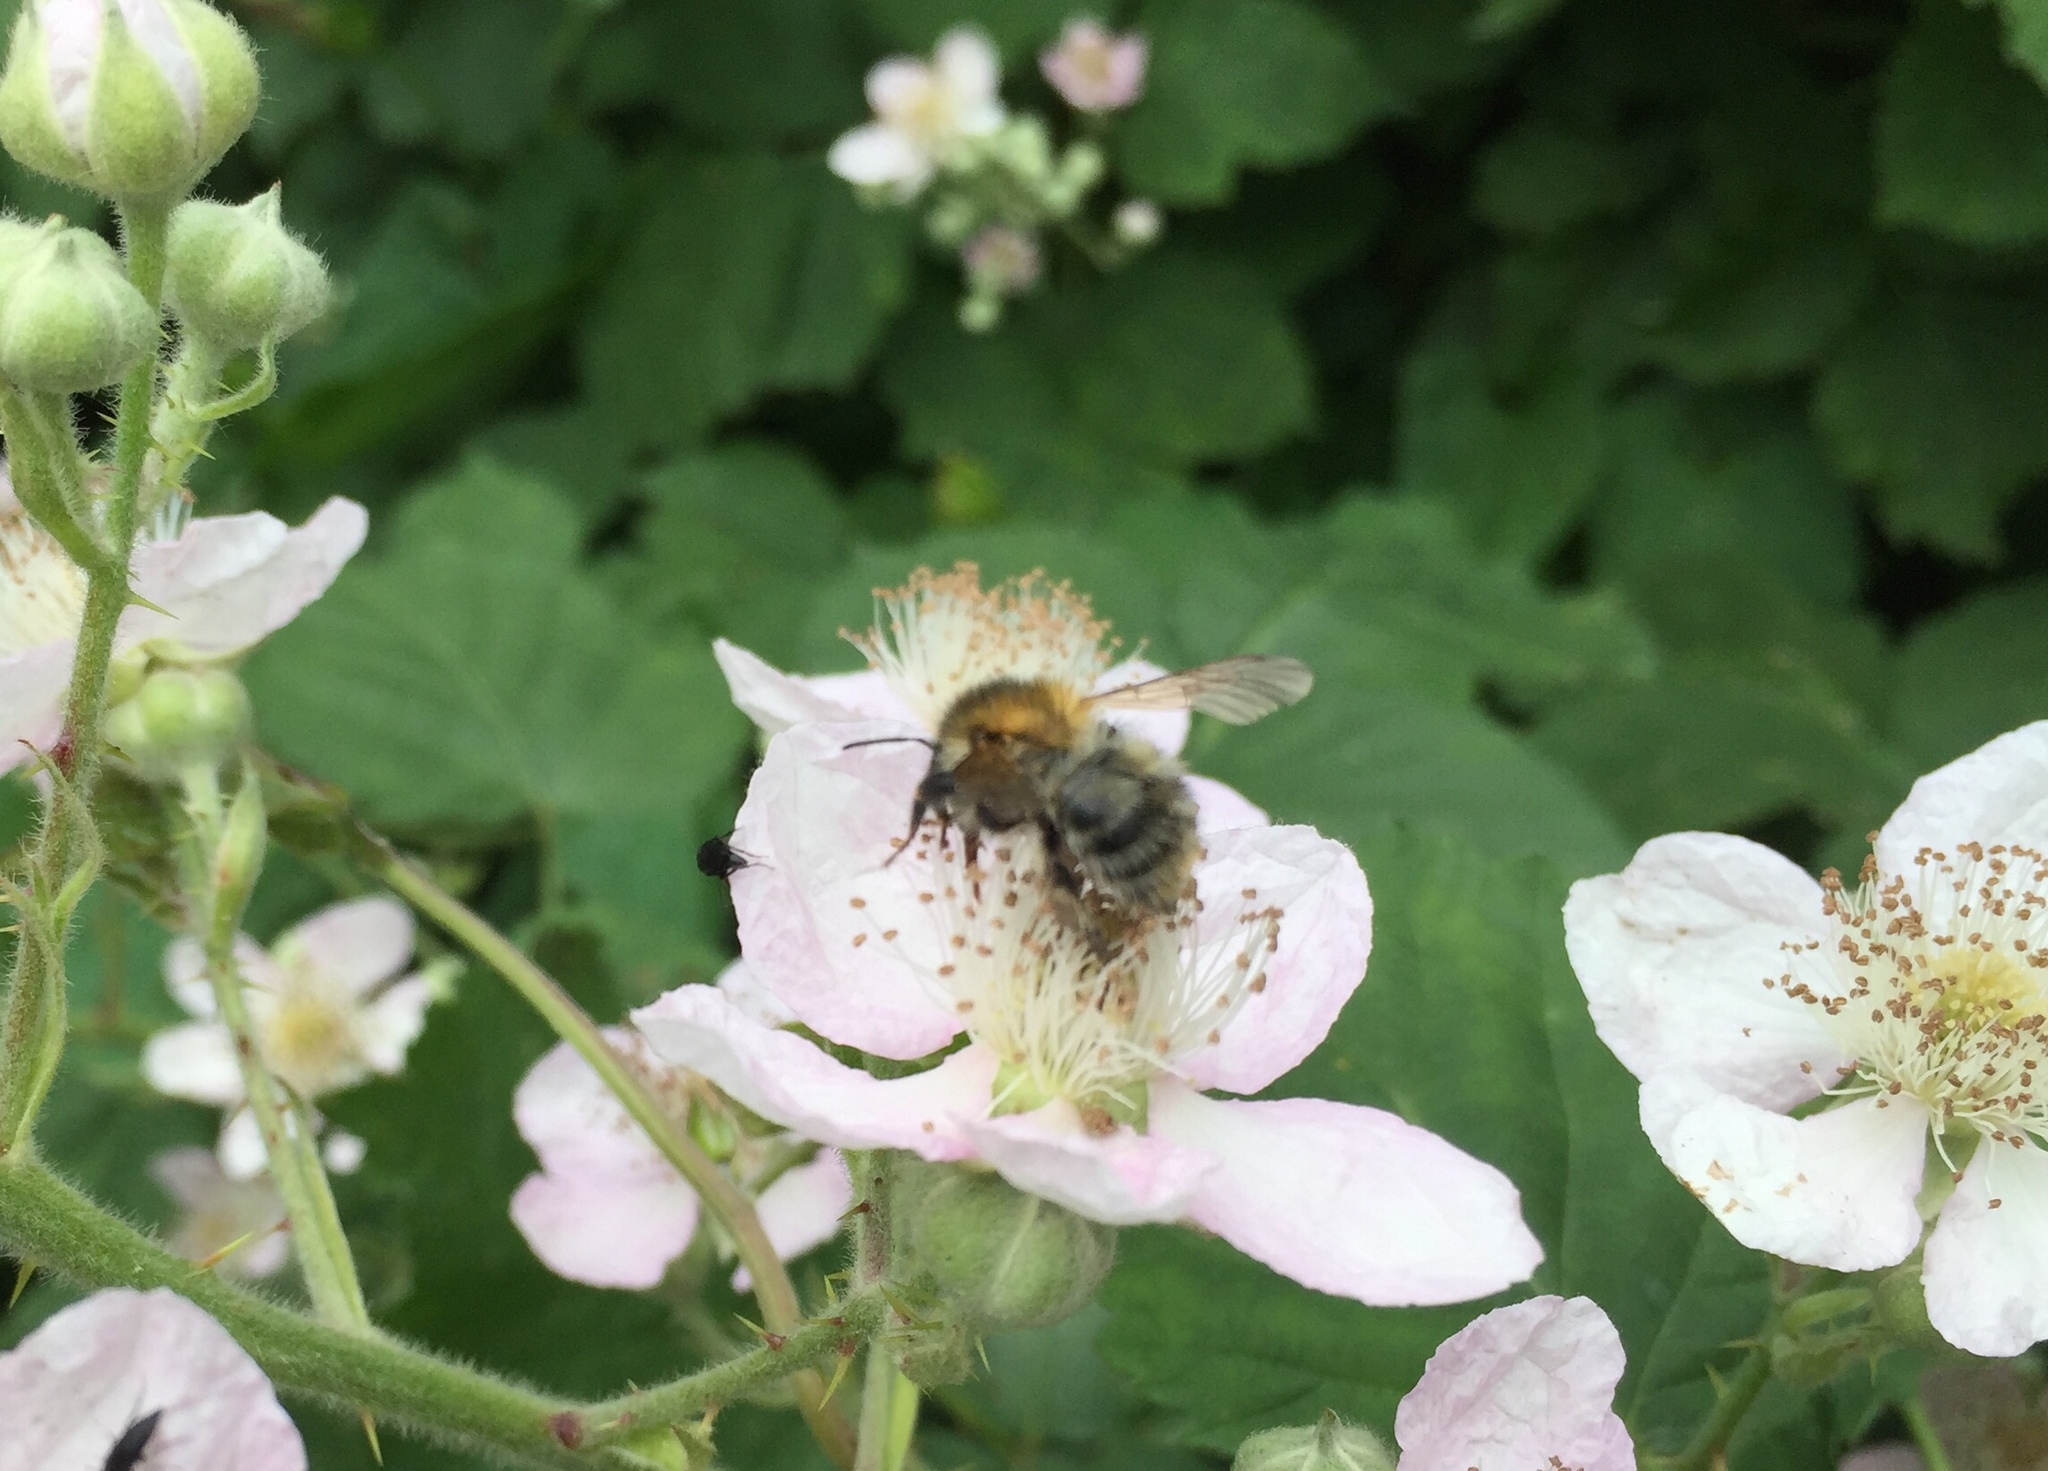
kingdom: Animalia
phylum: Arthropoda
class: Insecta
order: Hymenoptera
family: Apidae
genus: Bombus
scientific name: Bombus pascuorum
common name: Common carder bee
